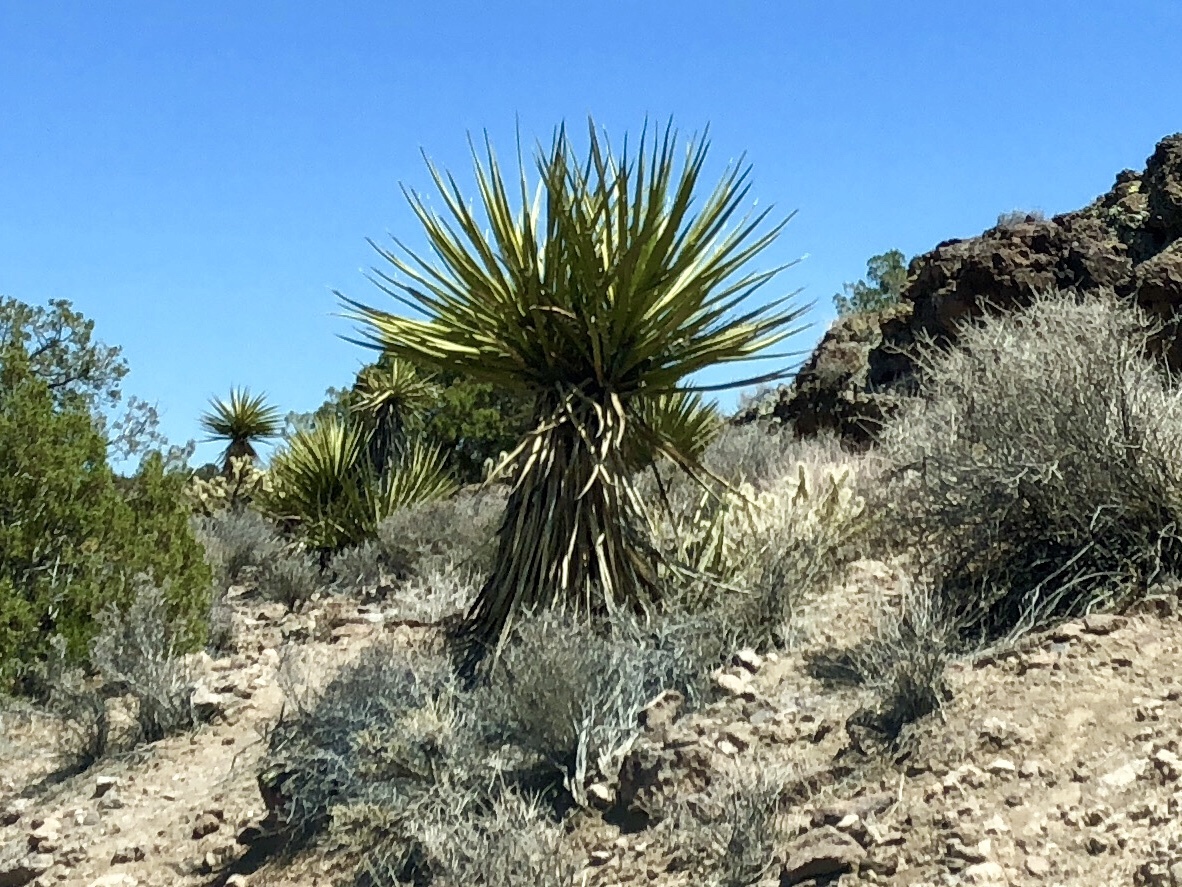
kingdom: Plantae
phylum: Tracheophyta
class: Liliopsida
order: Asparagales
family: Asparagaceae
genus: Yucca
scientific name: Yucca schidigera
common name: Mojave yucca
